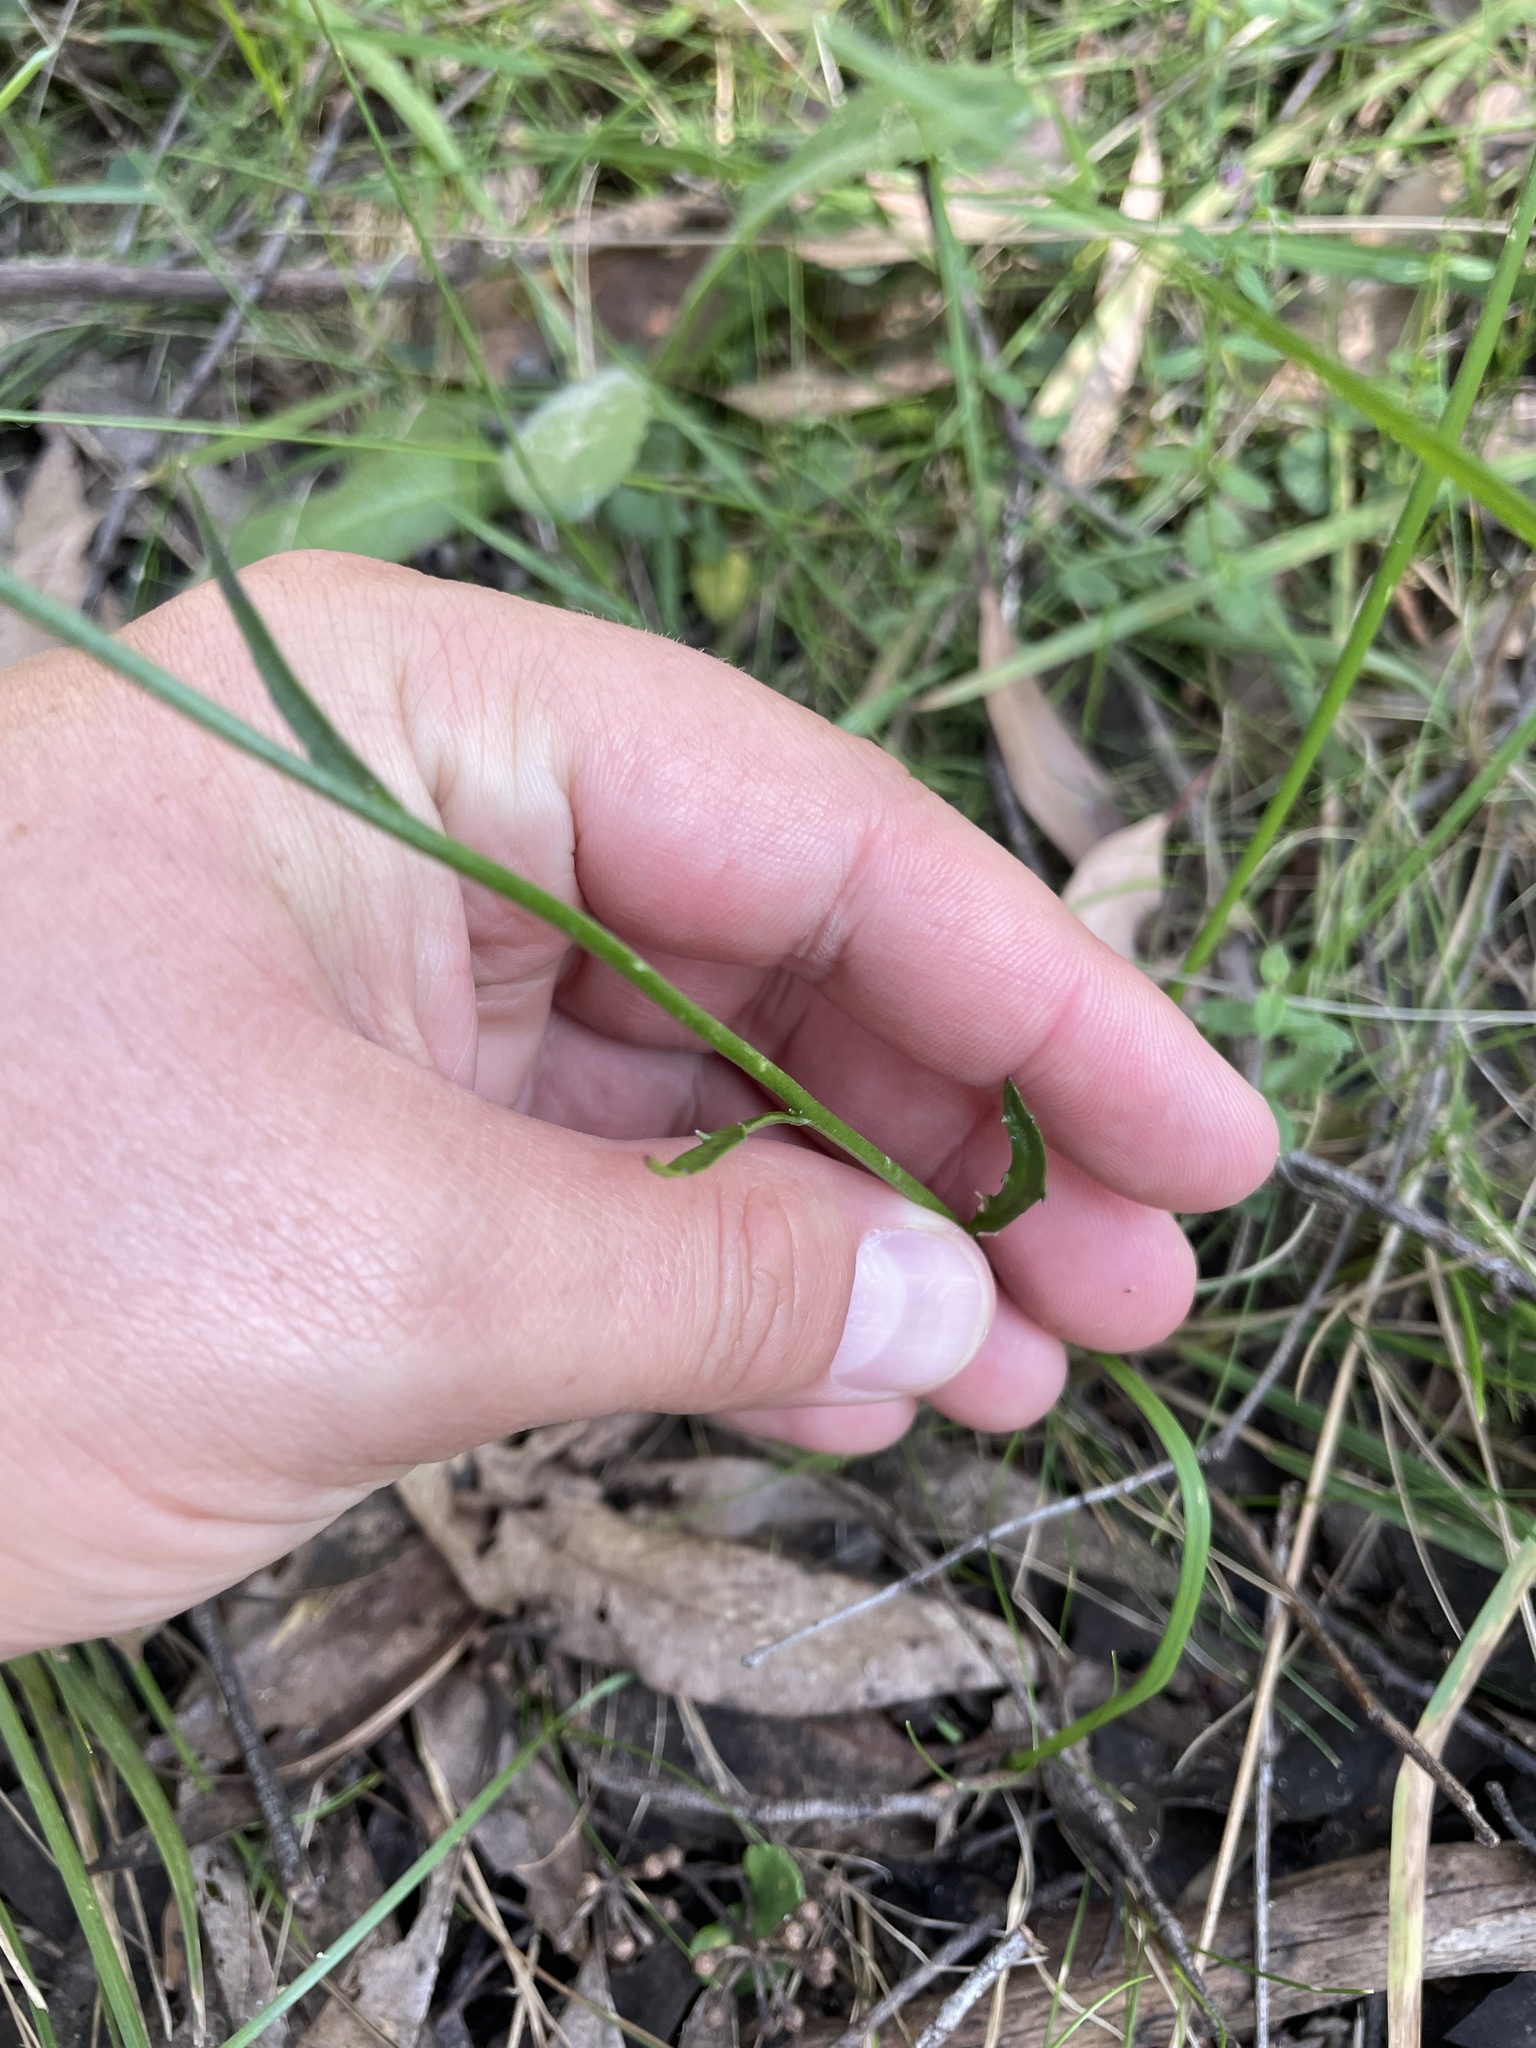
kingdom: Plantae
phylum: Tracheophyta
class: Magnoliopsida
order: Asterales
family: Campanulaceae
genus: Lobelia
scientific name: Lobelia gibbosa
